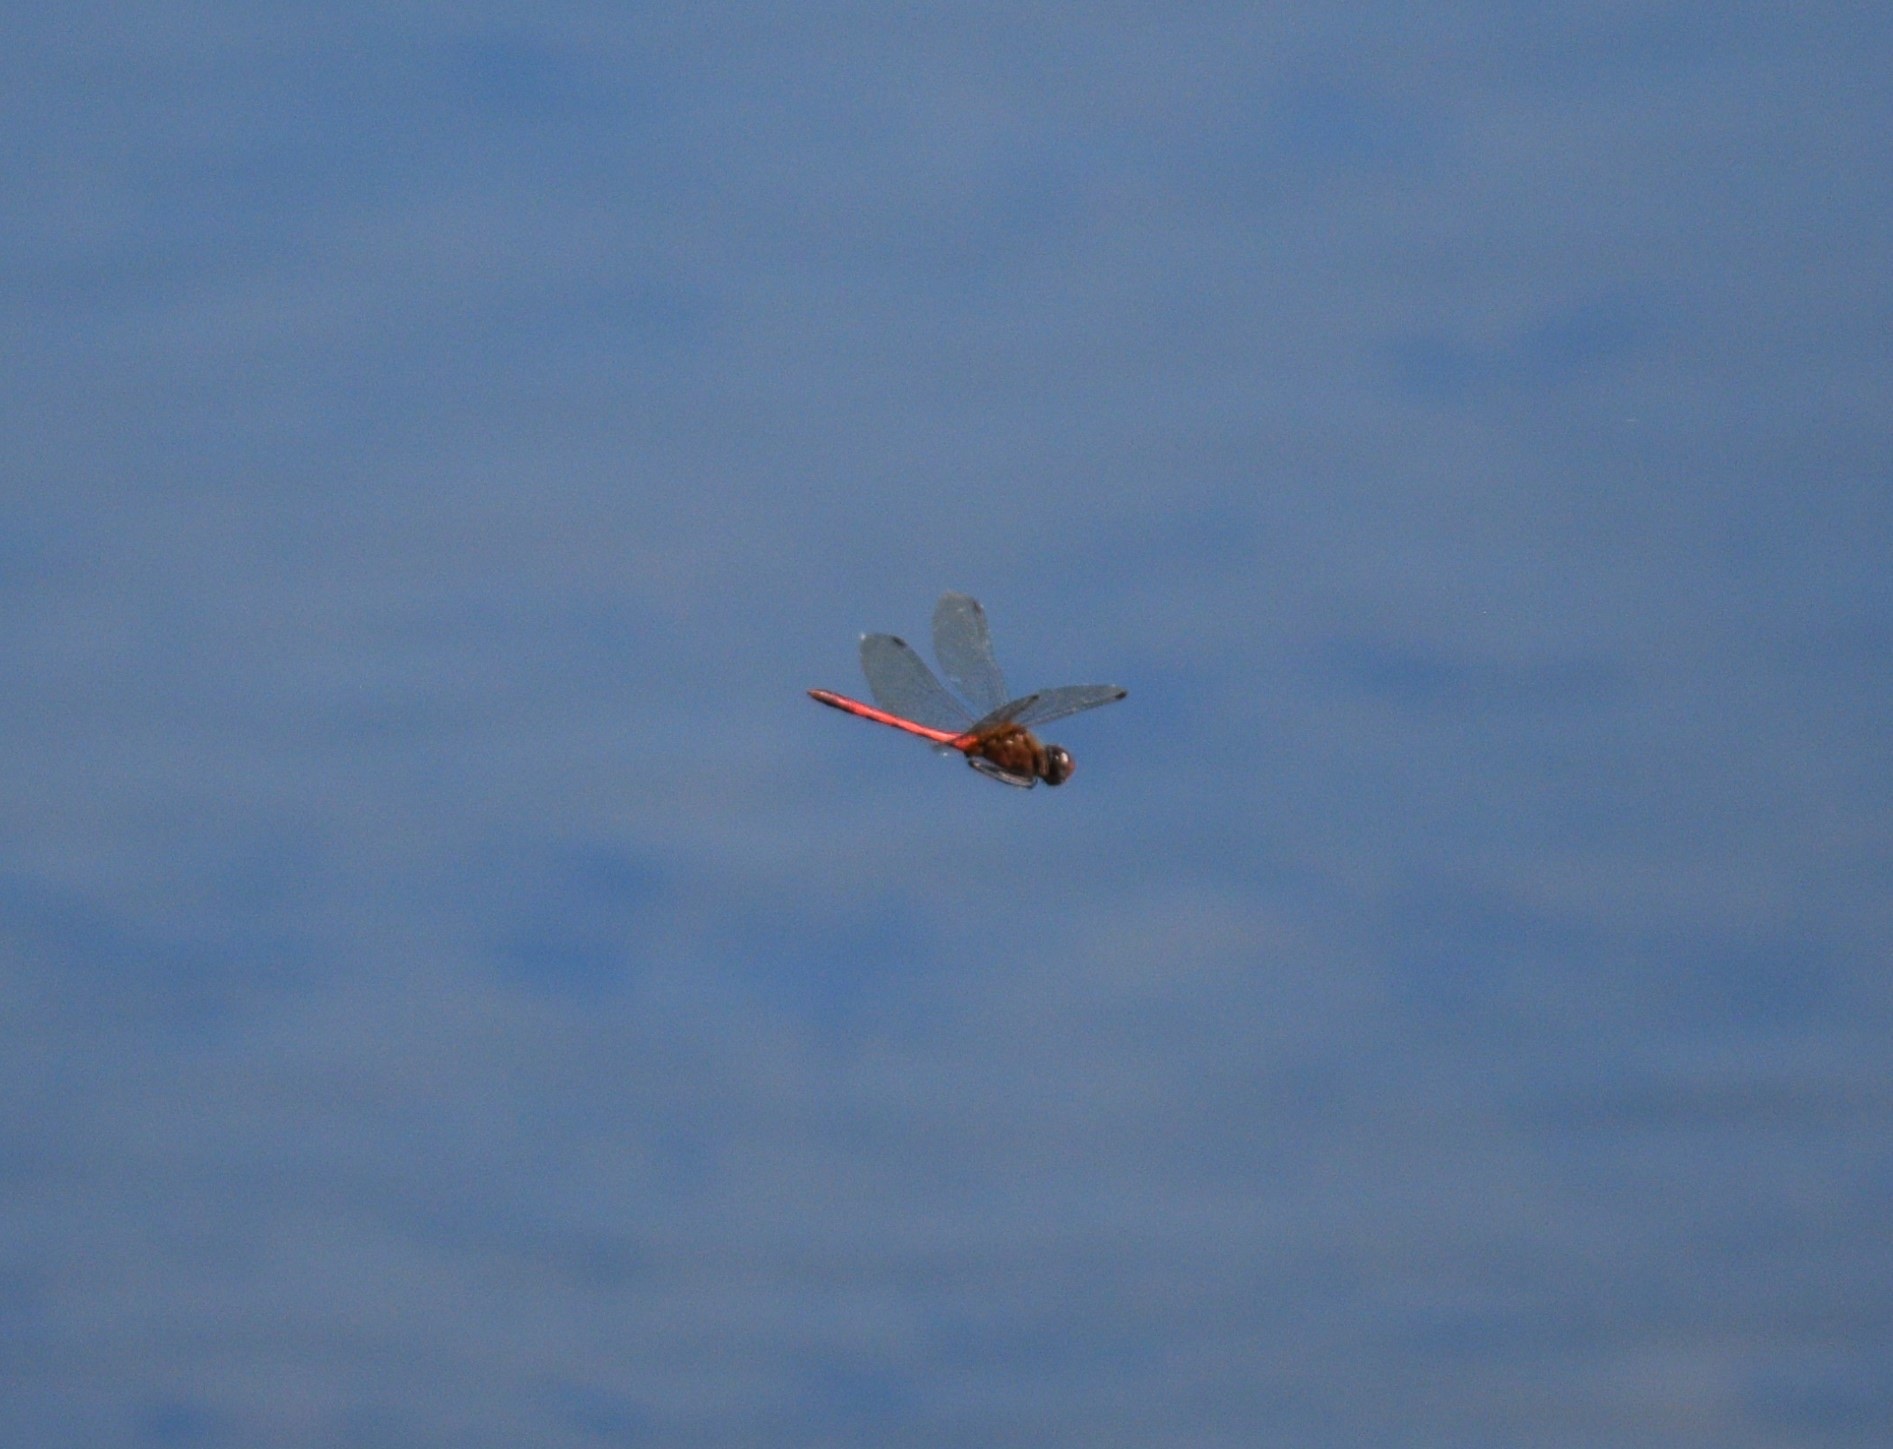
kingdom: Animalia
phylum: Arthropoda
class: Insecta
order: Odonata
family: Libellulidae
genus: Sympetrum
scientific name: Sympetrum vicinum
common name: Autumn meadowhawk
